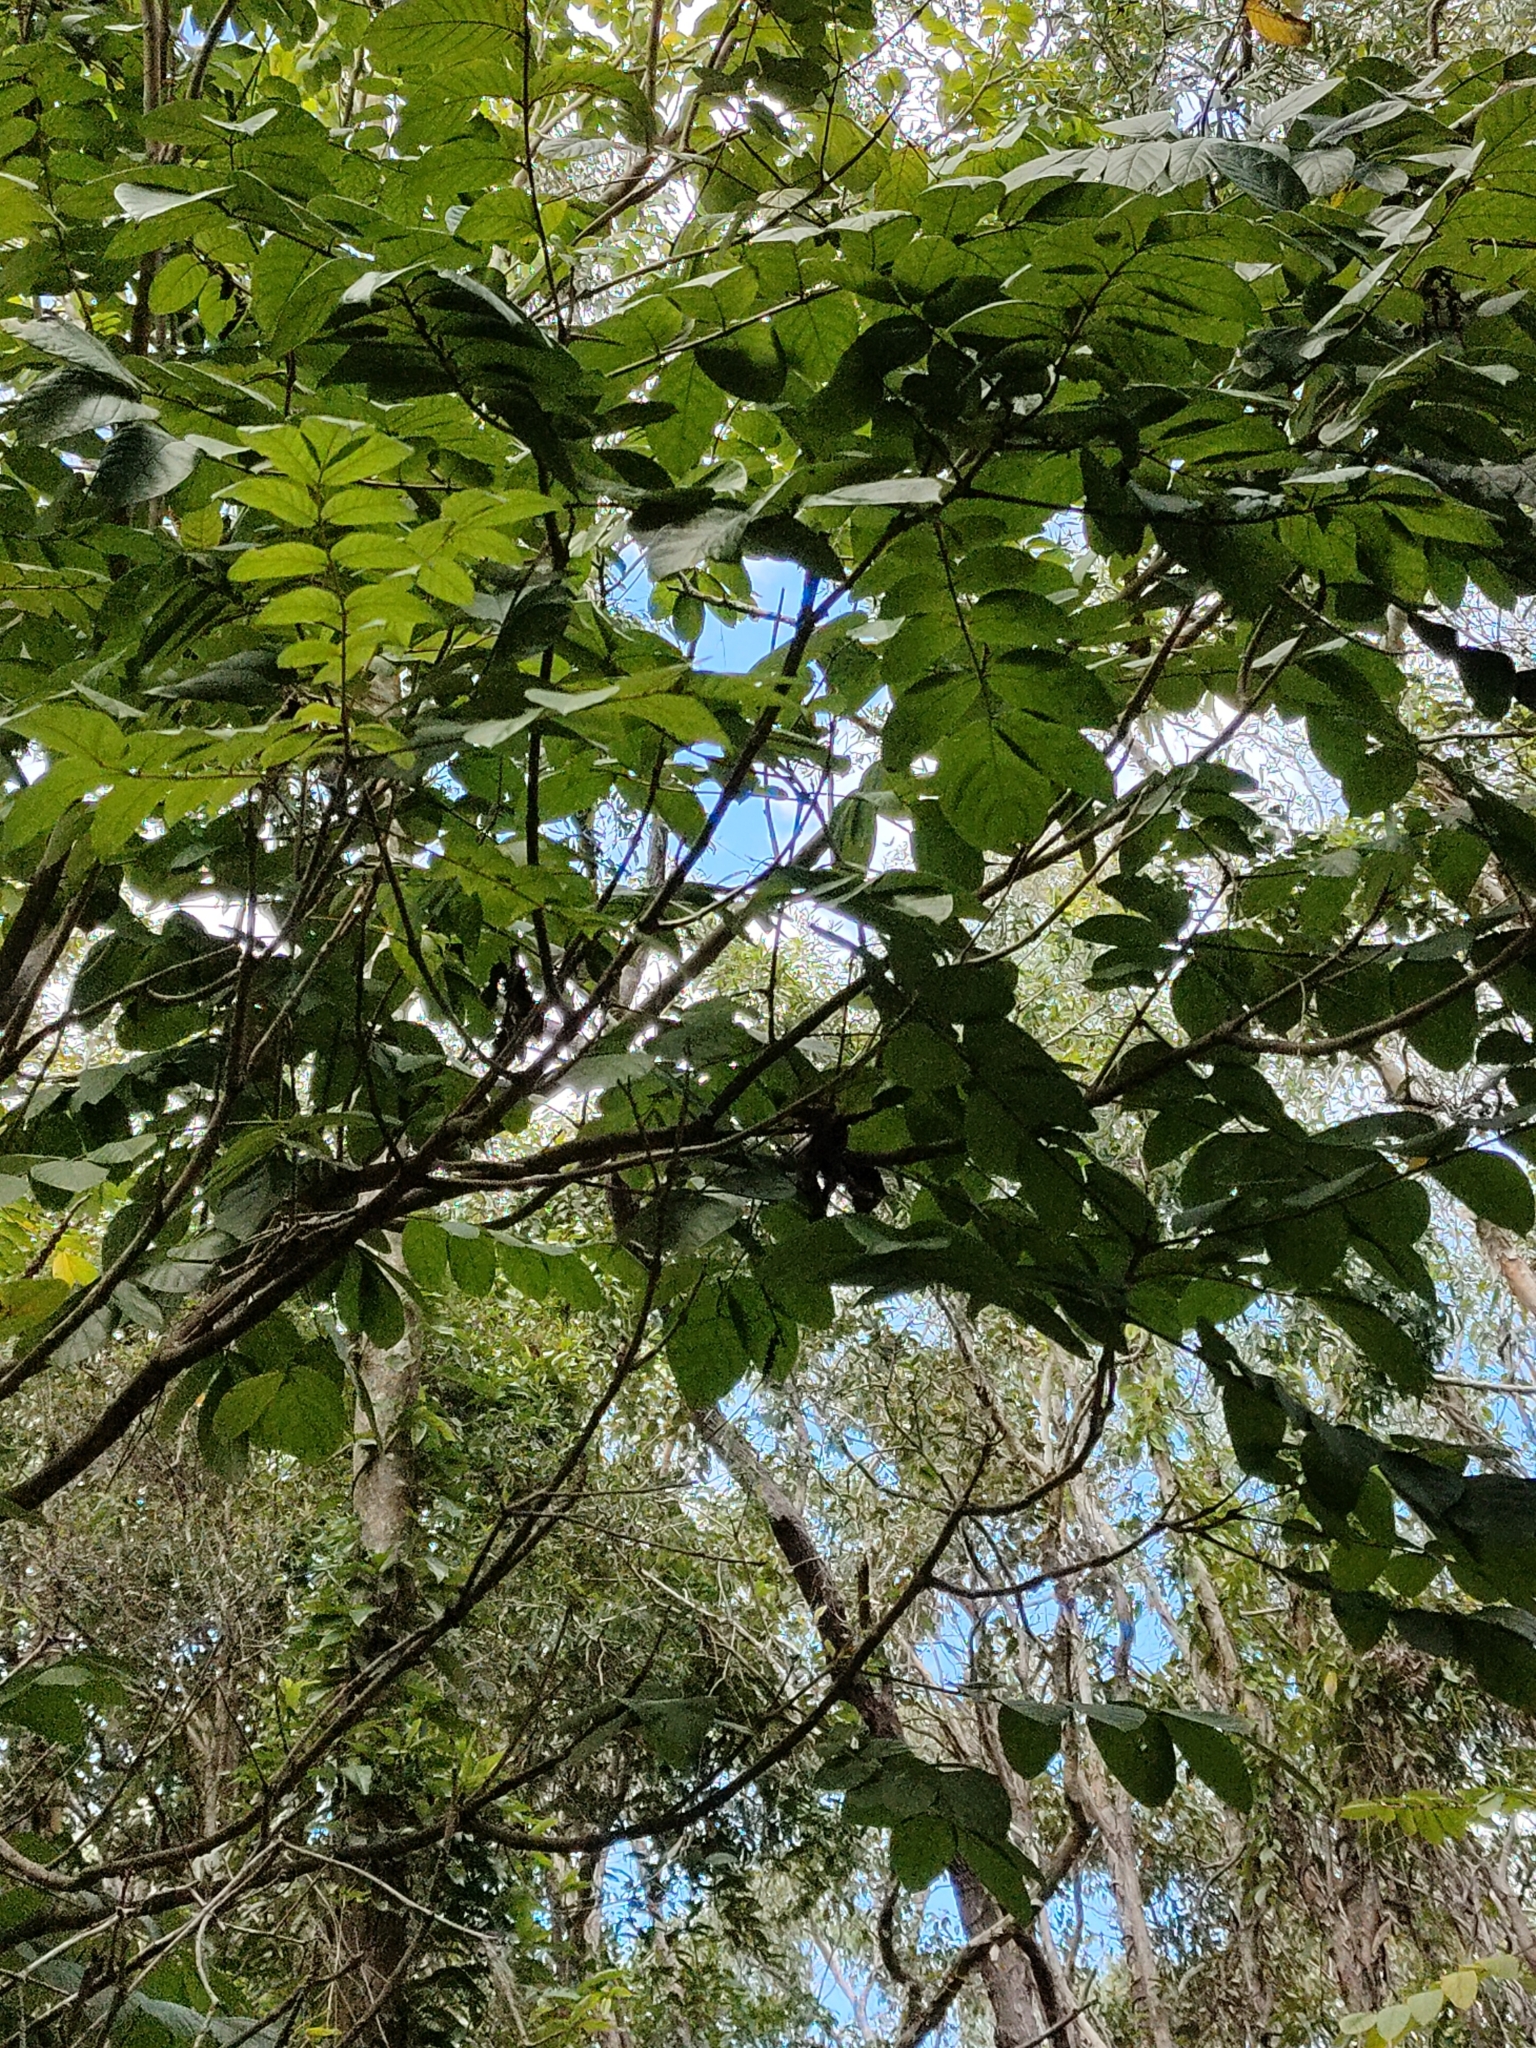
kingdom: Plantae
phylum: Tracheophyta
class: Magnoliopsida
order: Lamiales
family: Bignoniaceae
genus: Spathodea
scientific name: Spathodea campanulata
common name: African tuliptree
